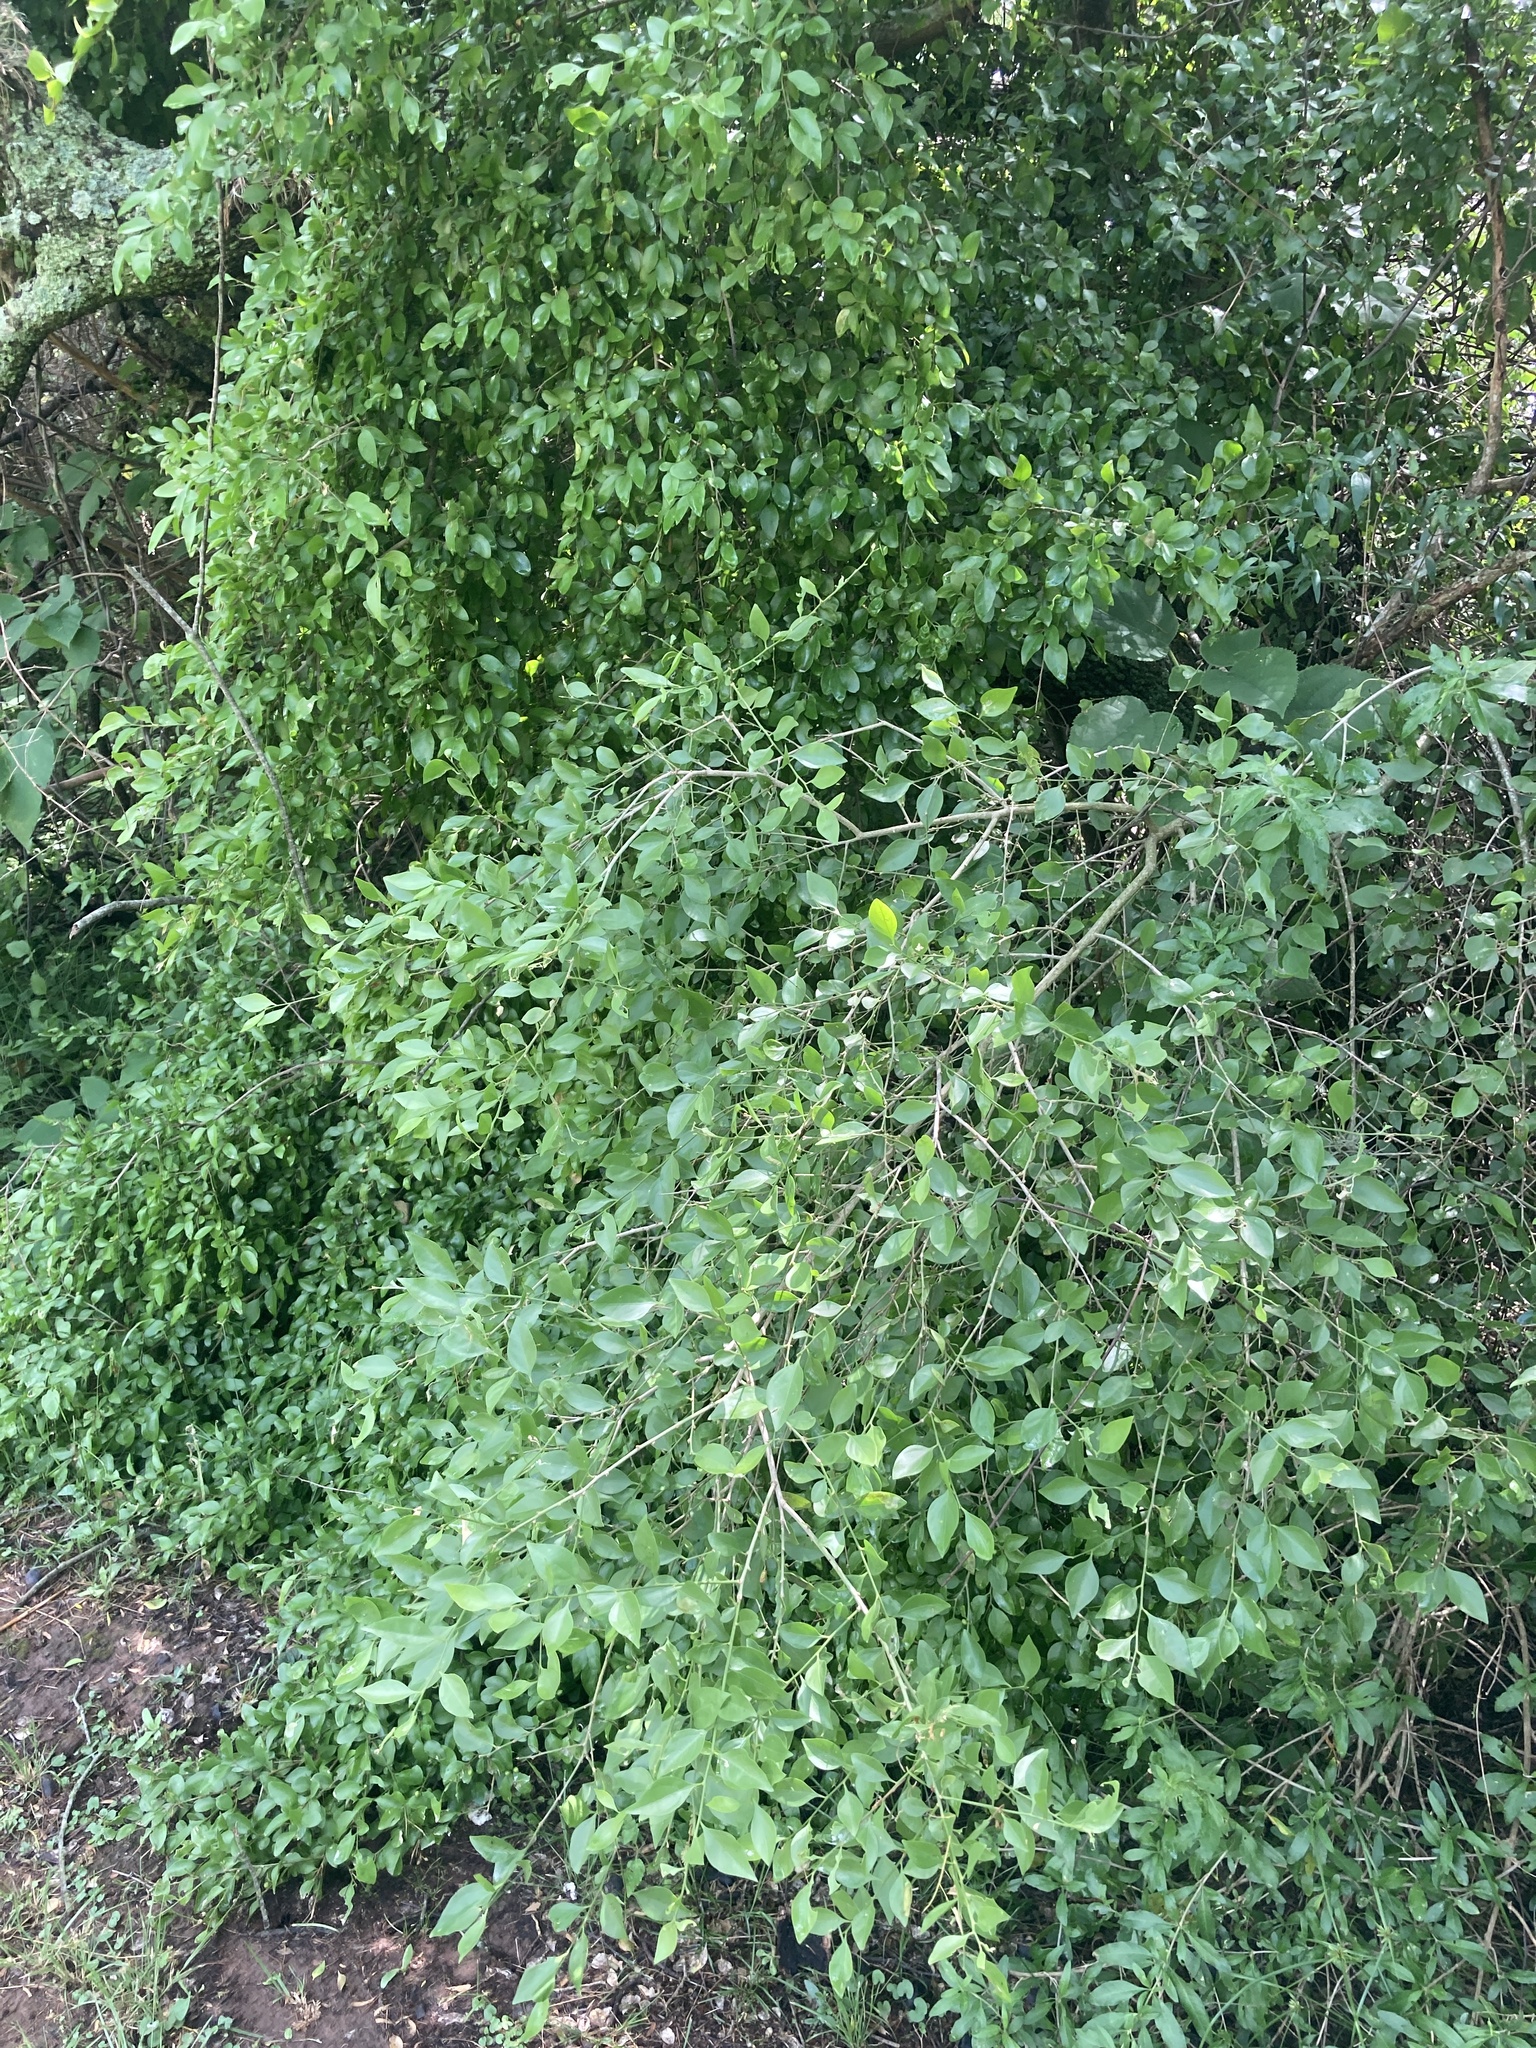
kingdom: Plantae
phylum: Tracheophyta
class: Magnoliopsida
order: Celastrales
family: Celastraceae
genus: Schaefferia
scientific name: Schaefferia argentinensis
